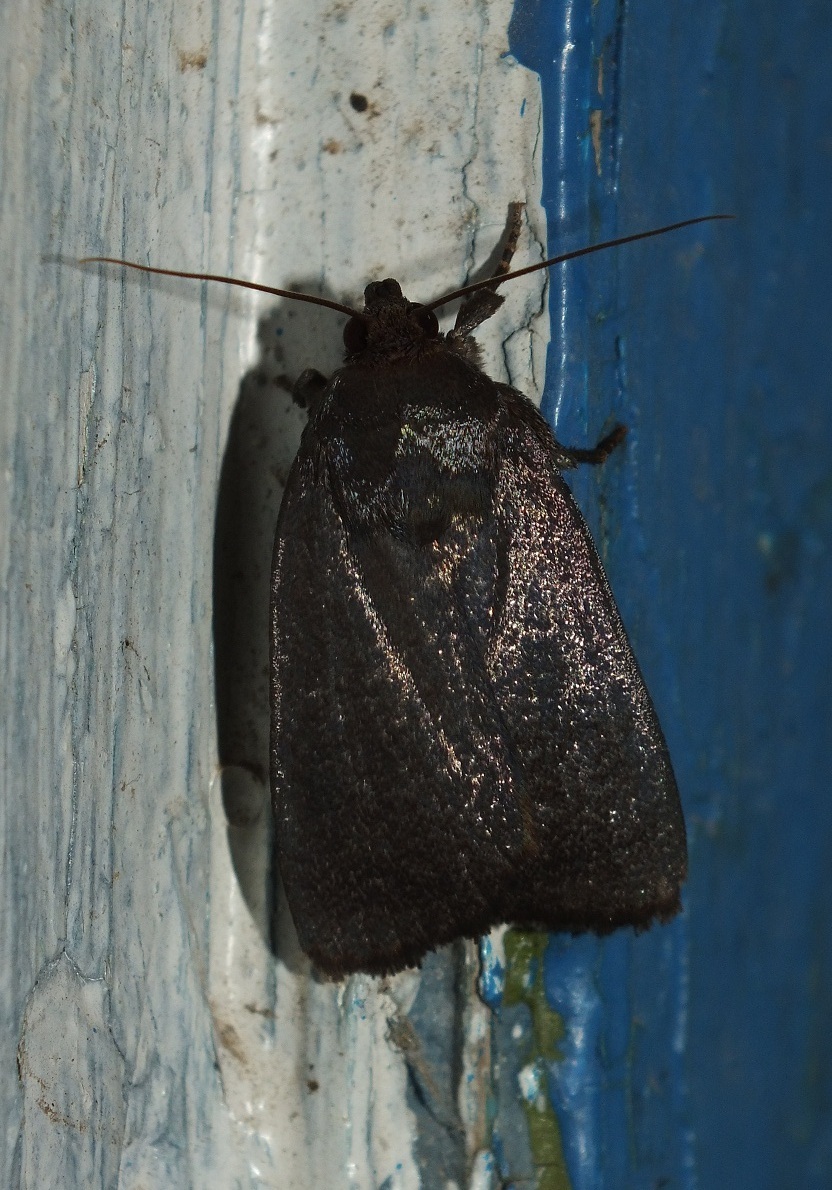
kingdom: Animalia
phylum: Arthropoda
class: Insecta
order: Lepidoptera
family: Noctuidae
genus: Amphipyra
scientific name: Amphipyra livida
